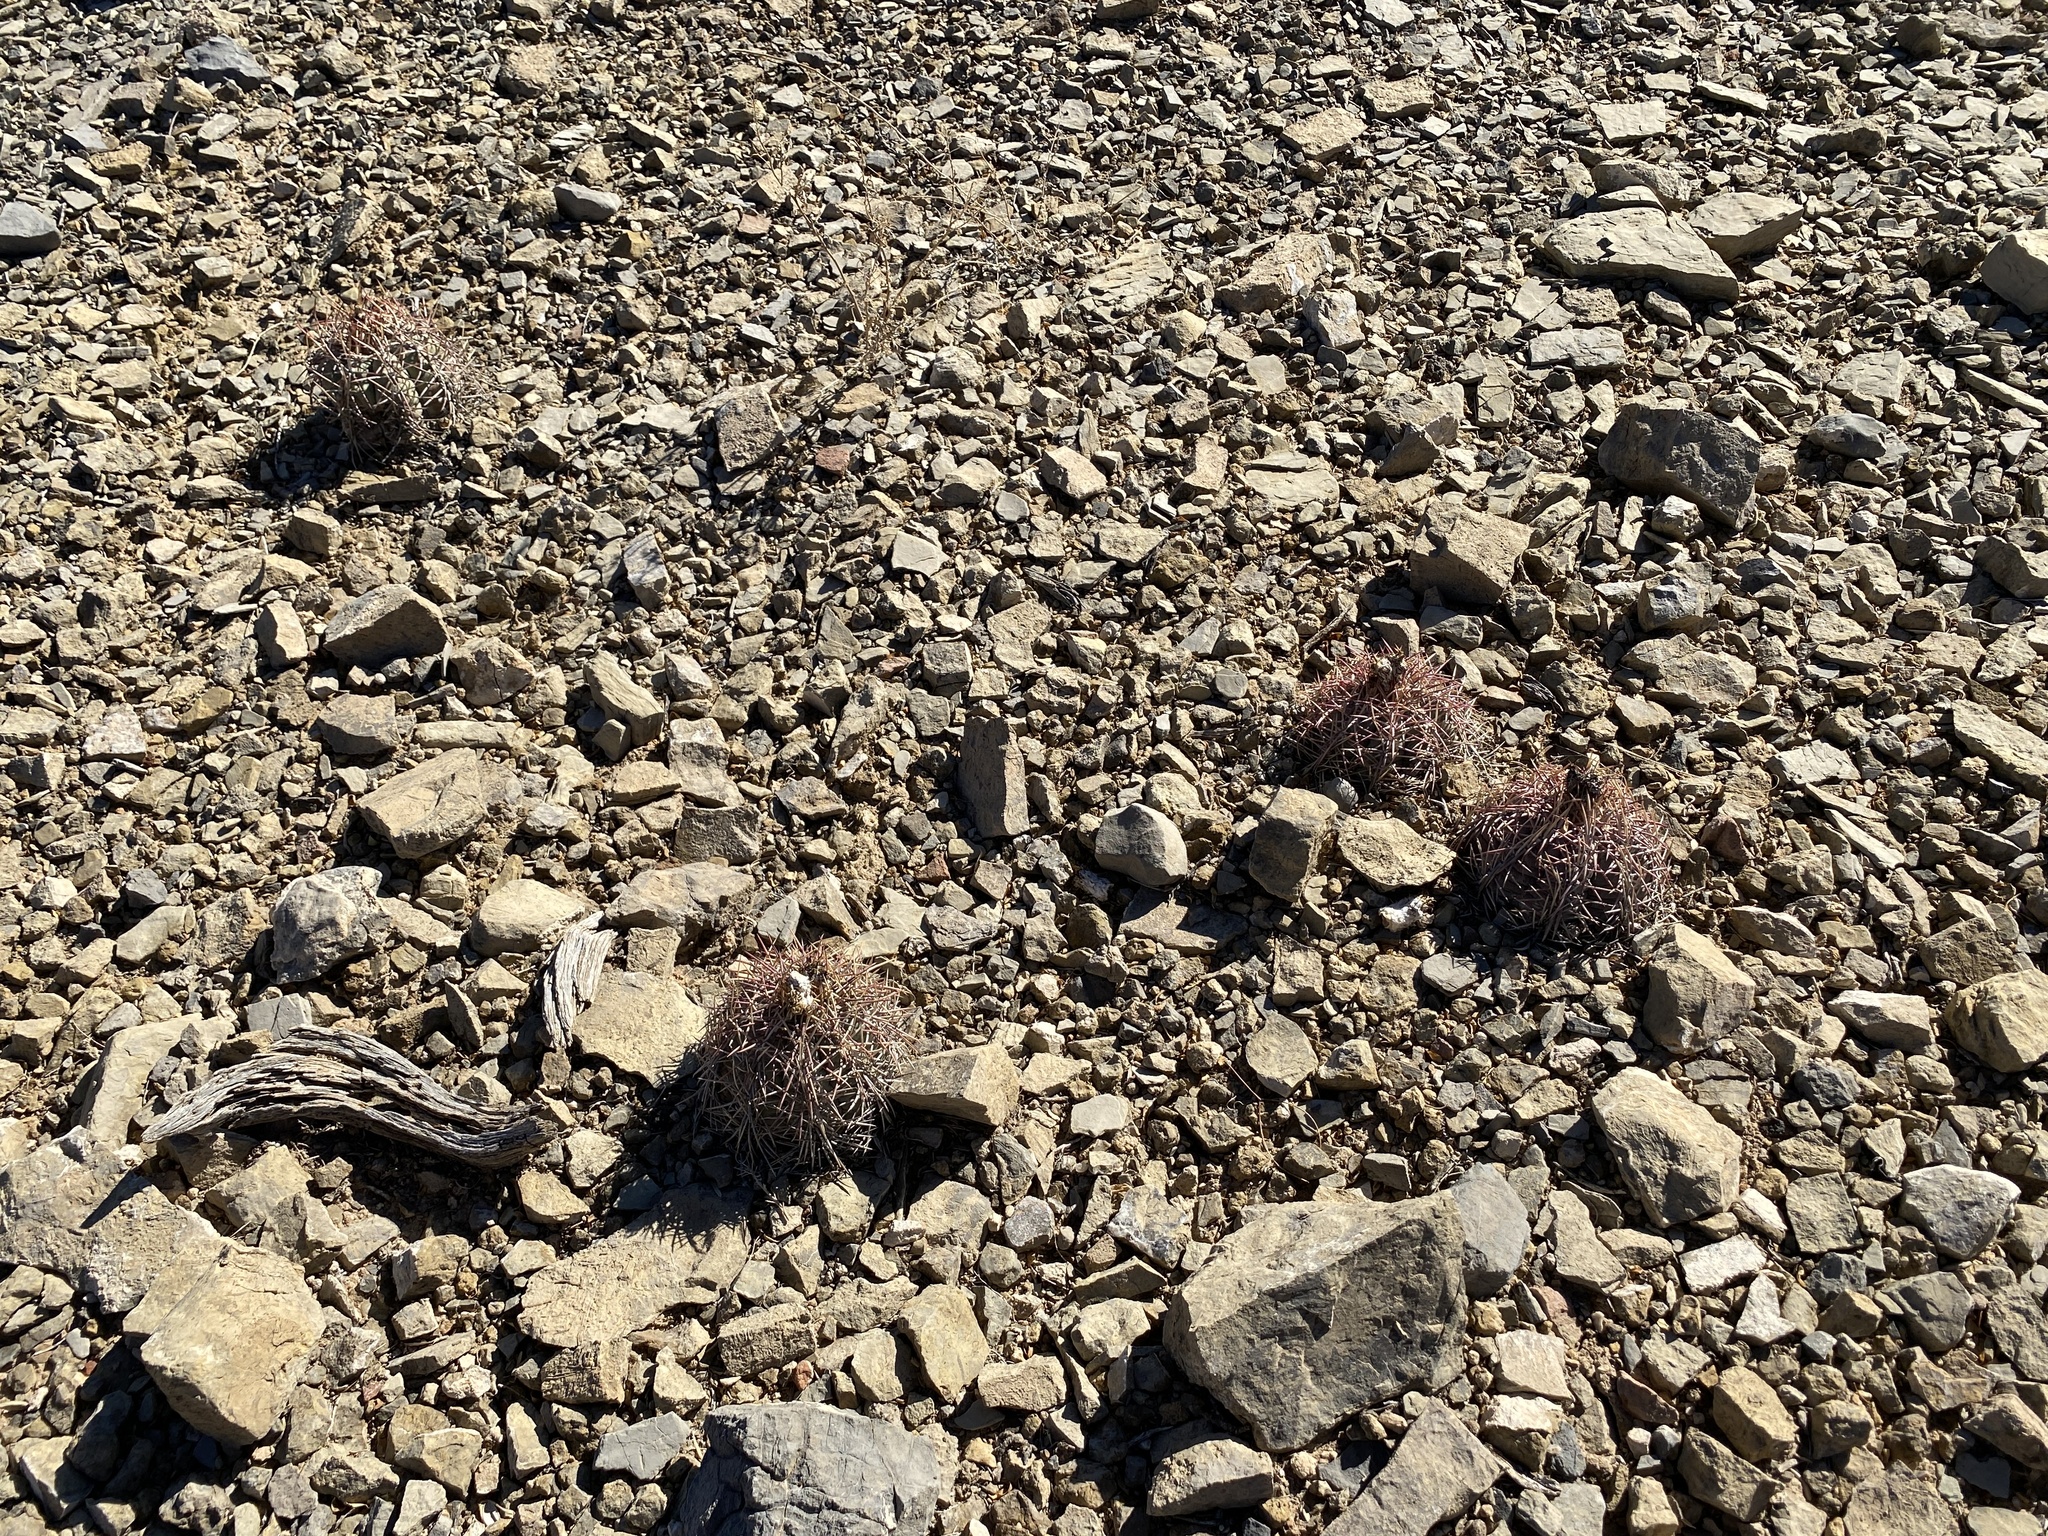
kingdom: Plantae
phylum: Tracheophyta
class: Magnoliopsida
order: Caryophyllales
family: Cactaceae
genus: Echinocactus
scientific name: Echinocactus horizonthalonius
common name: Devilshead
